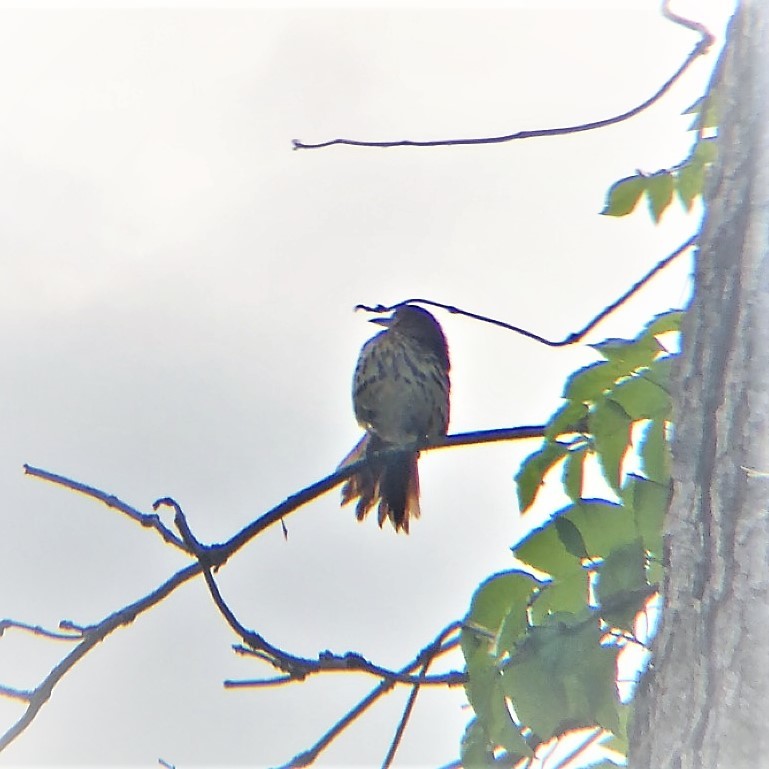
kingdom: Animalia
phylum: Chordata
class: Aves
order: Passeriformes
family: Mimidae
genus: Toxostoma
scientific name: Toxostoma rufum
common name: Brown thrasher
